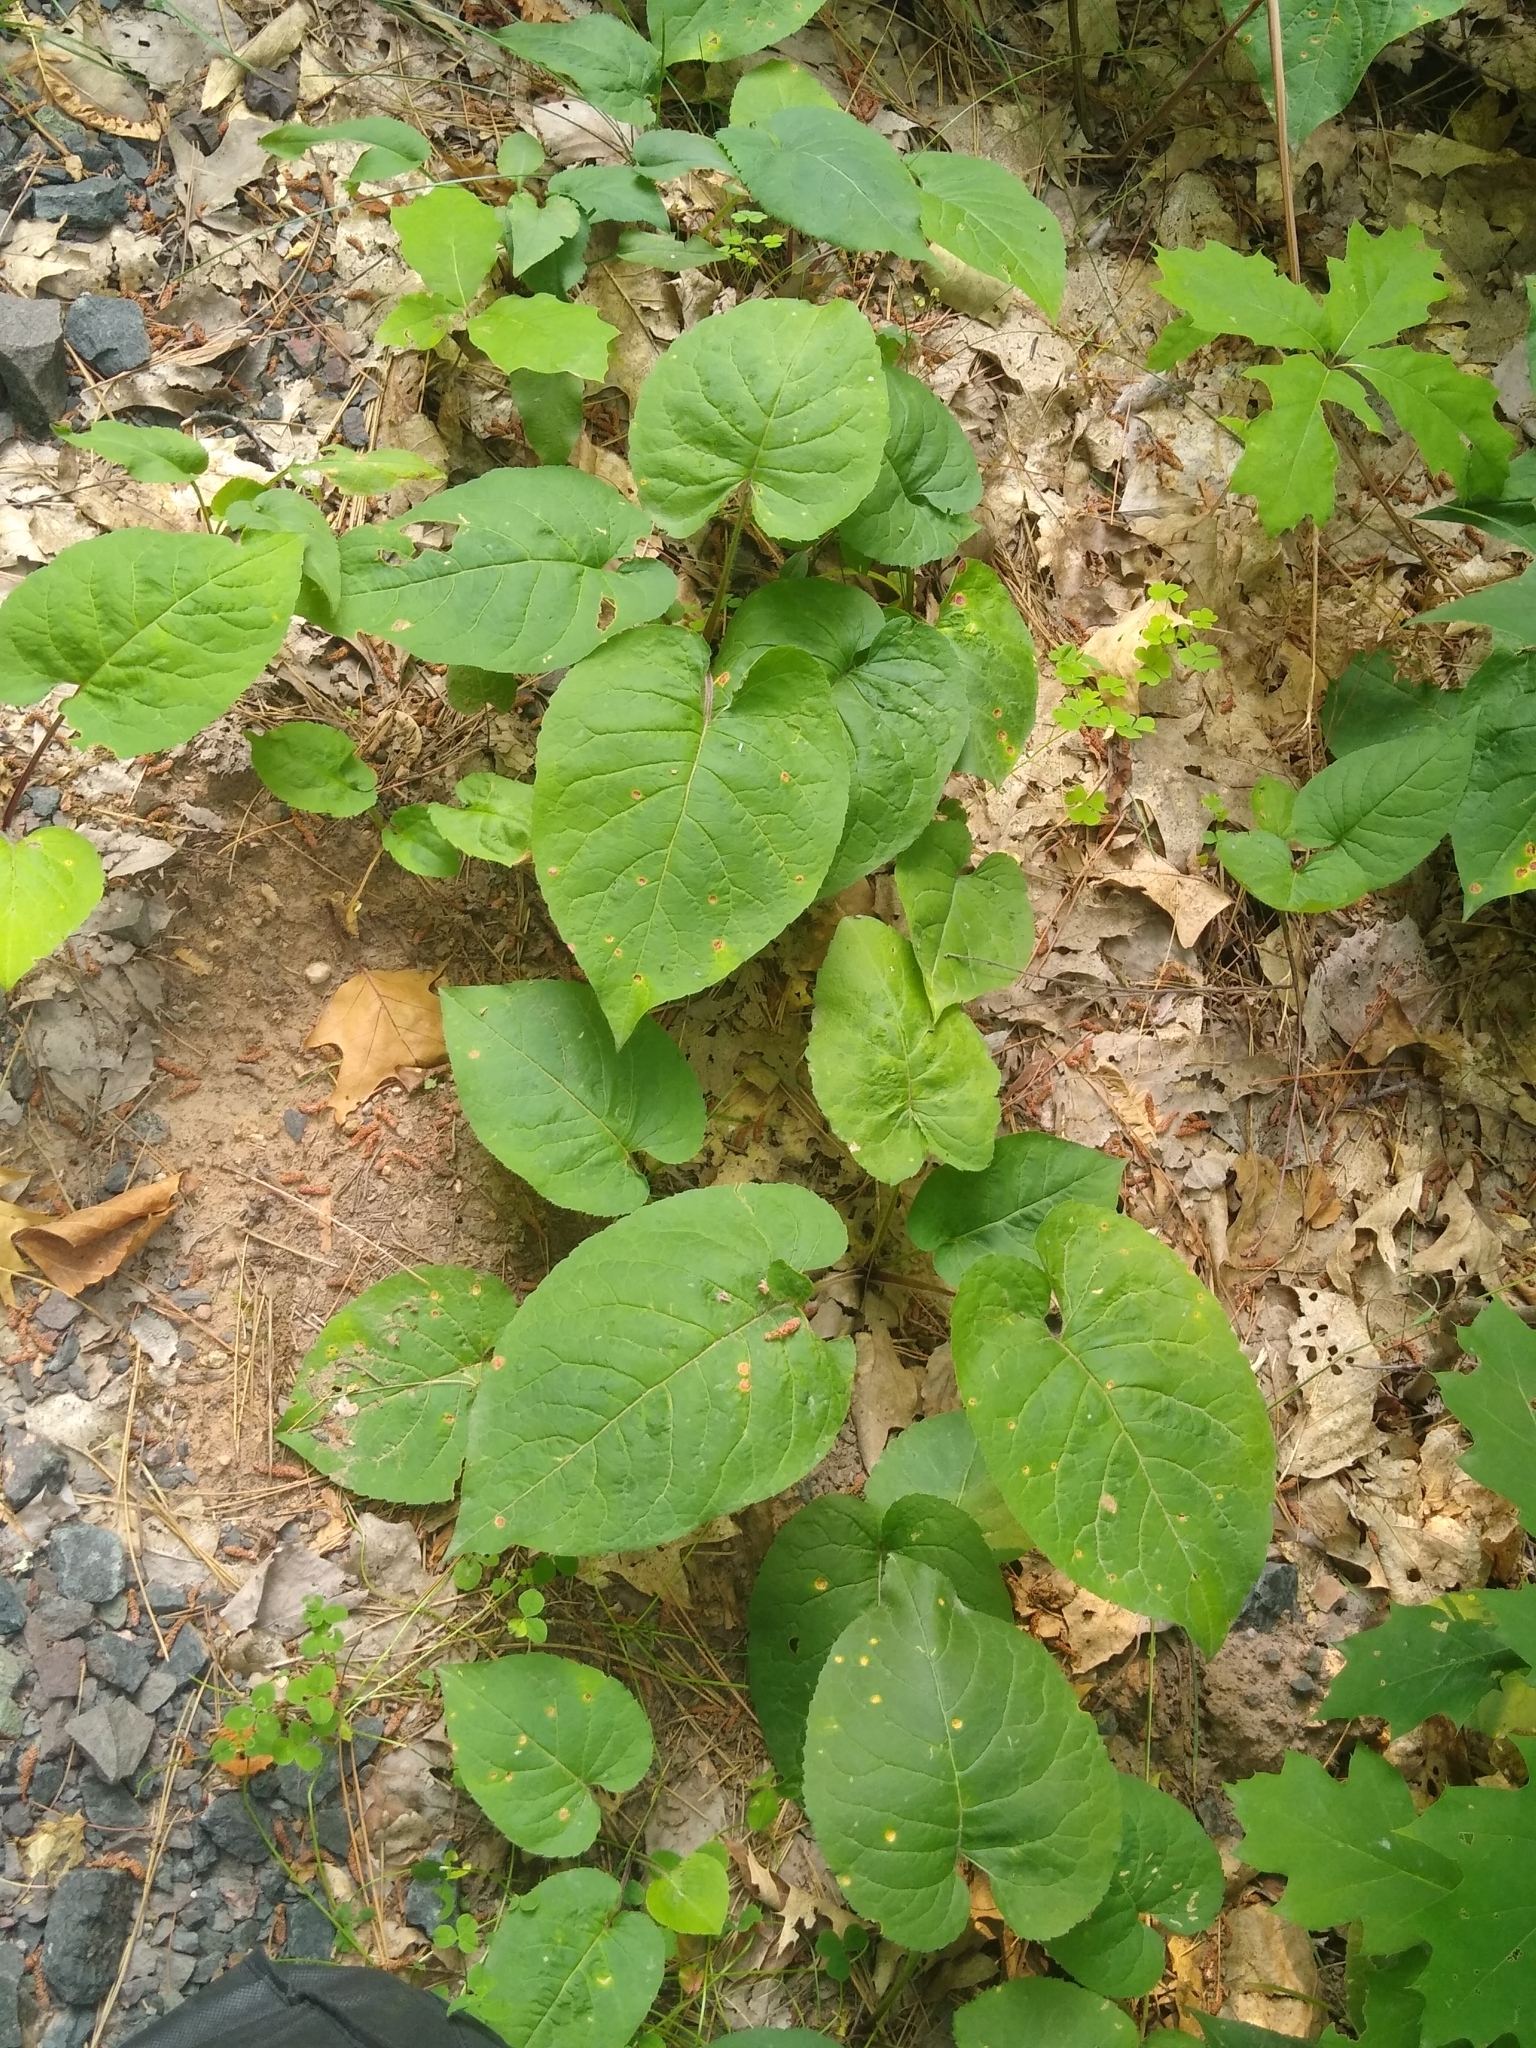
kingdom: Plantae
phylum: Tracheophyta
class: Magnoliopsida
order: Asterales
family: Asteraceae
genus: Eurybia
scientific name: Eurybia macrophylla
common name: Big-leaved aster
